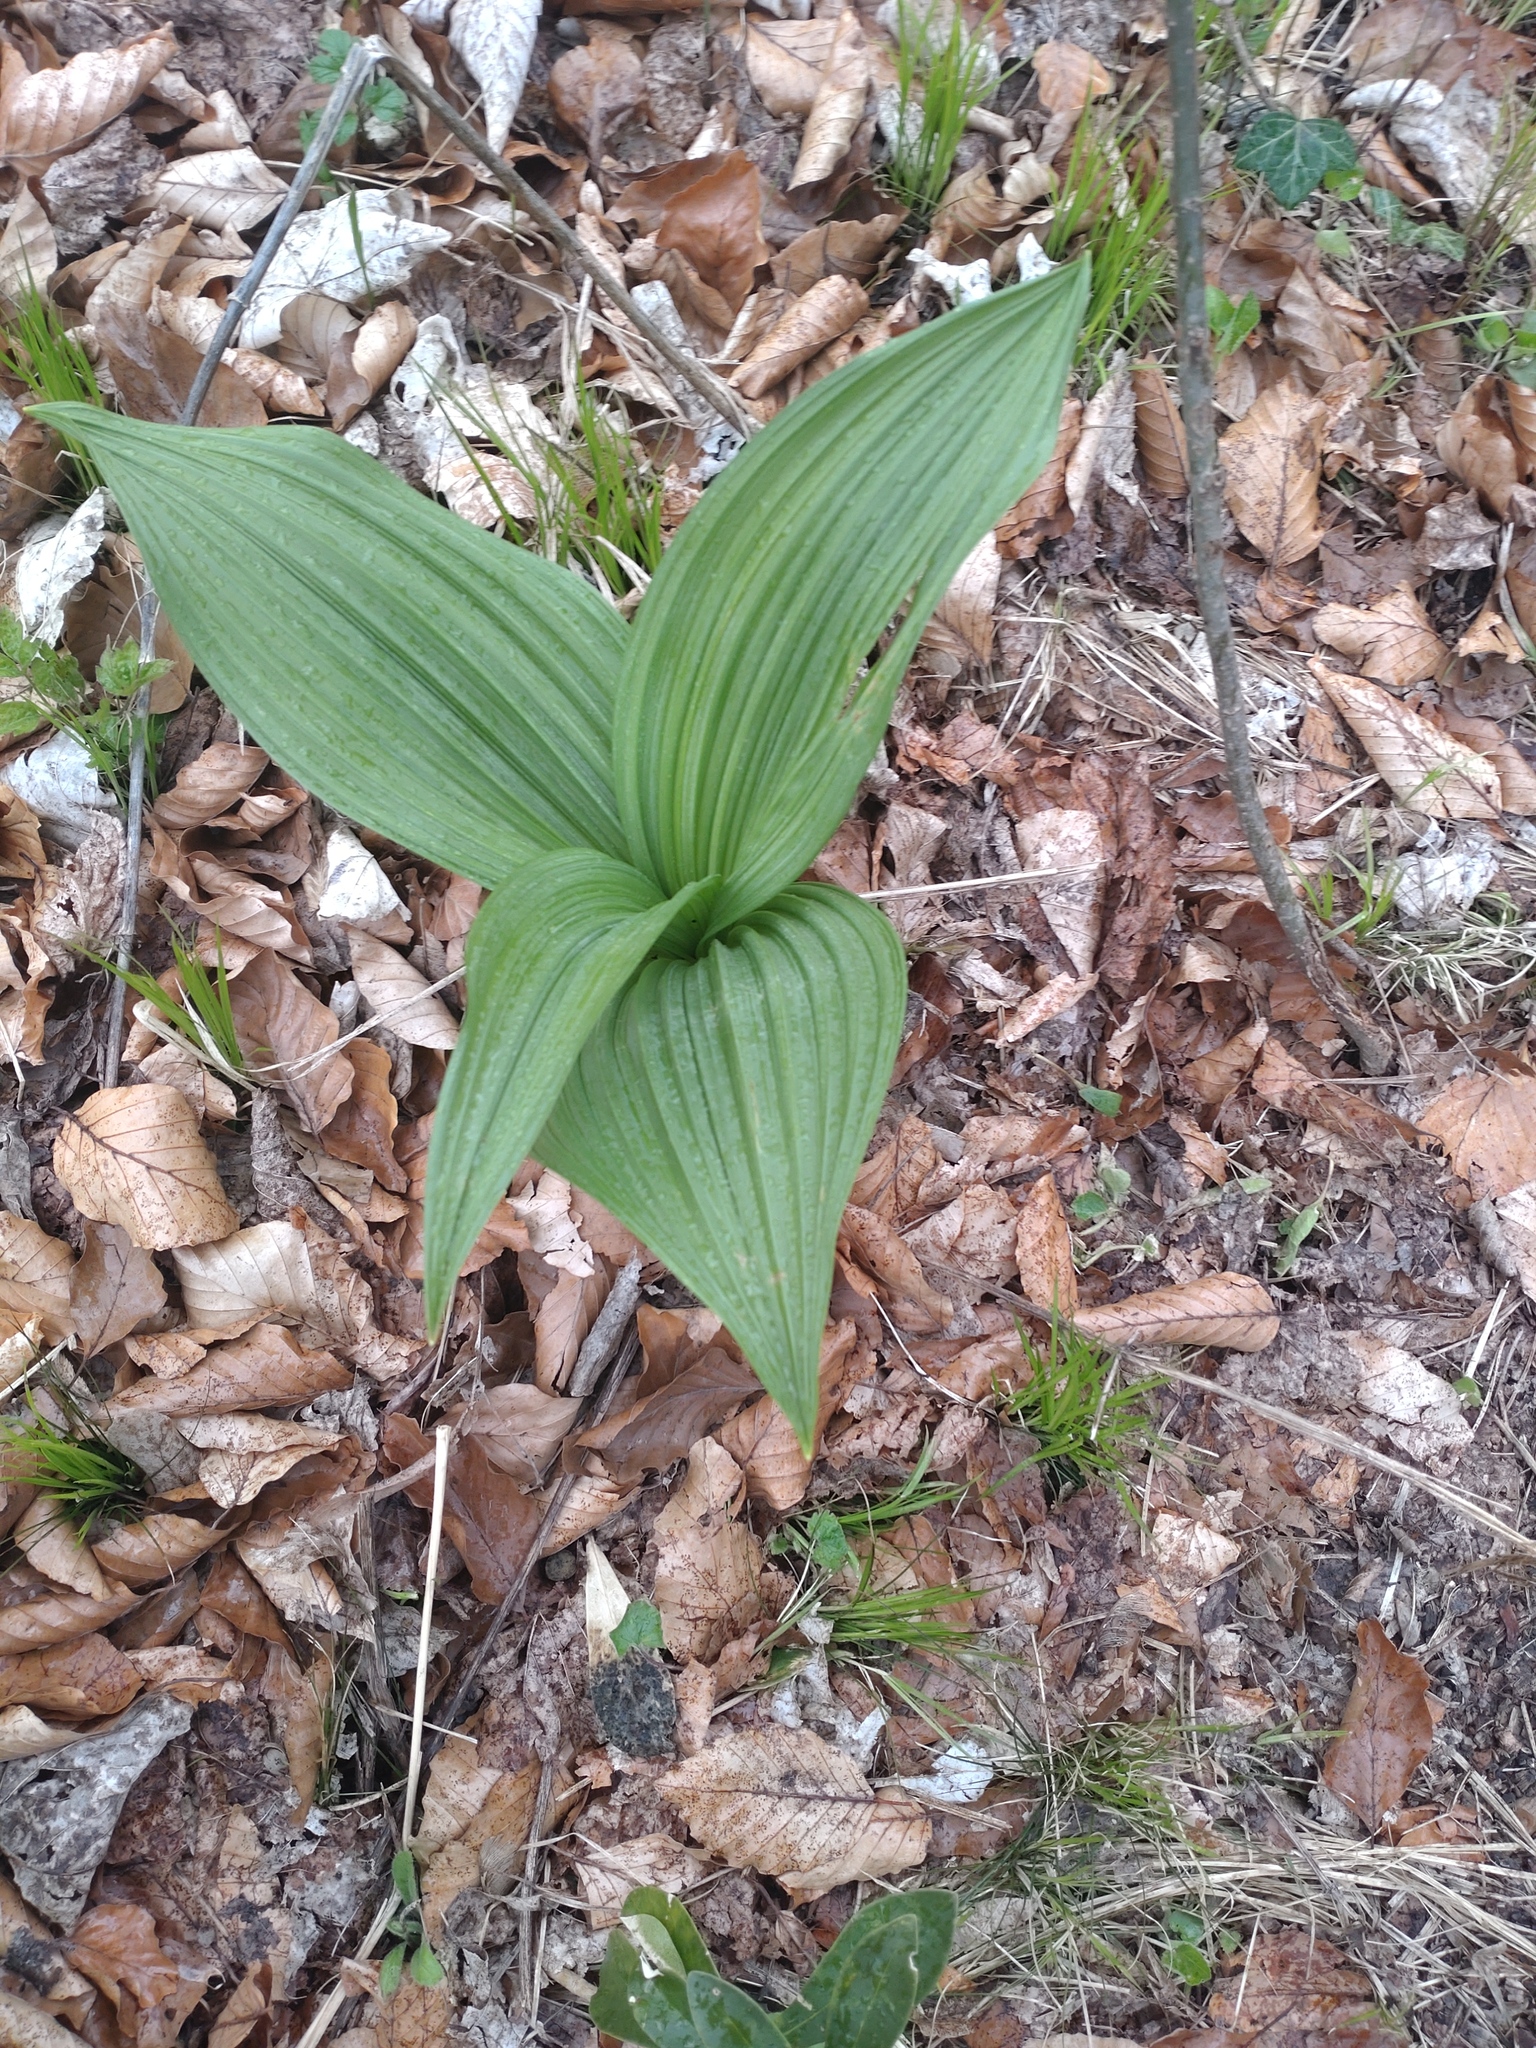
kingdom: Plantae
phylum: Tracheophyta
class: Liliopsida
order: Liliales
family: Melanthiaceae
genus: Veratrum
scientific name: Veratrum nigrum
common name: Black veratrum
